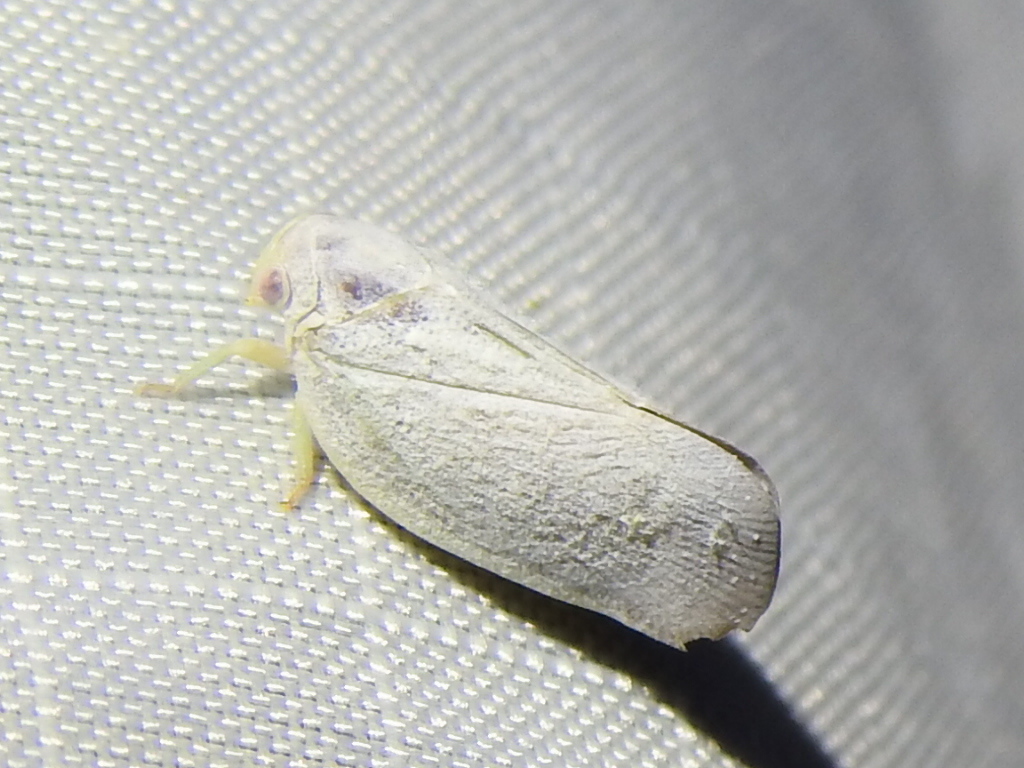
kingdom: Animalia
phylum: Arthropoda
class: Insecta
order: Hemiptera
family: Flatidae
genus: Flatormenis
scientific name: Flatormenis saucia
